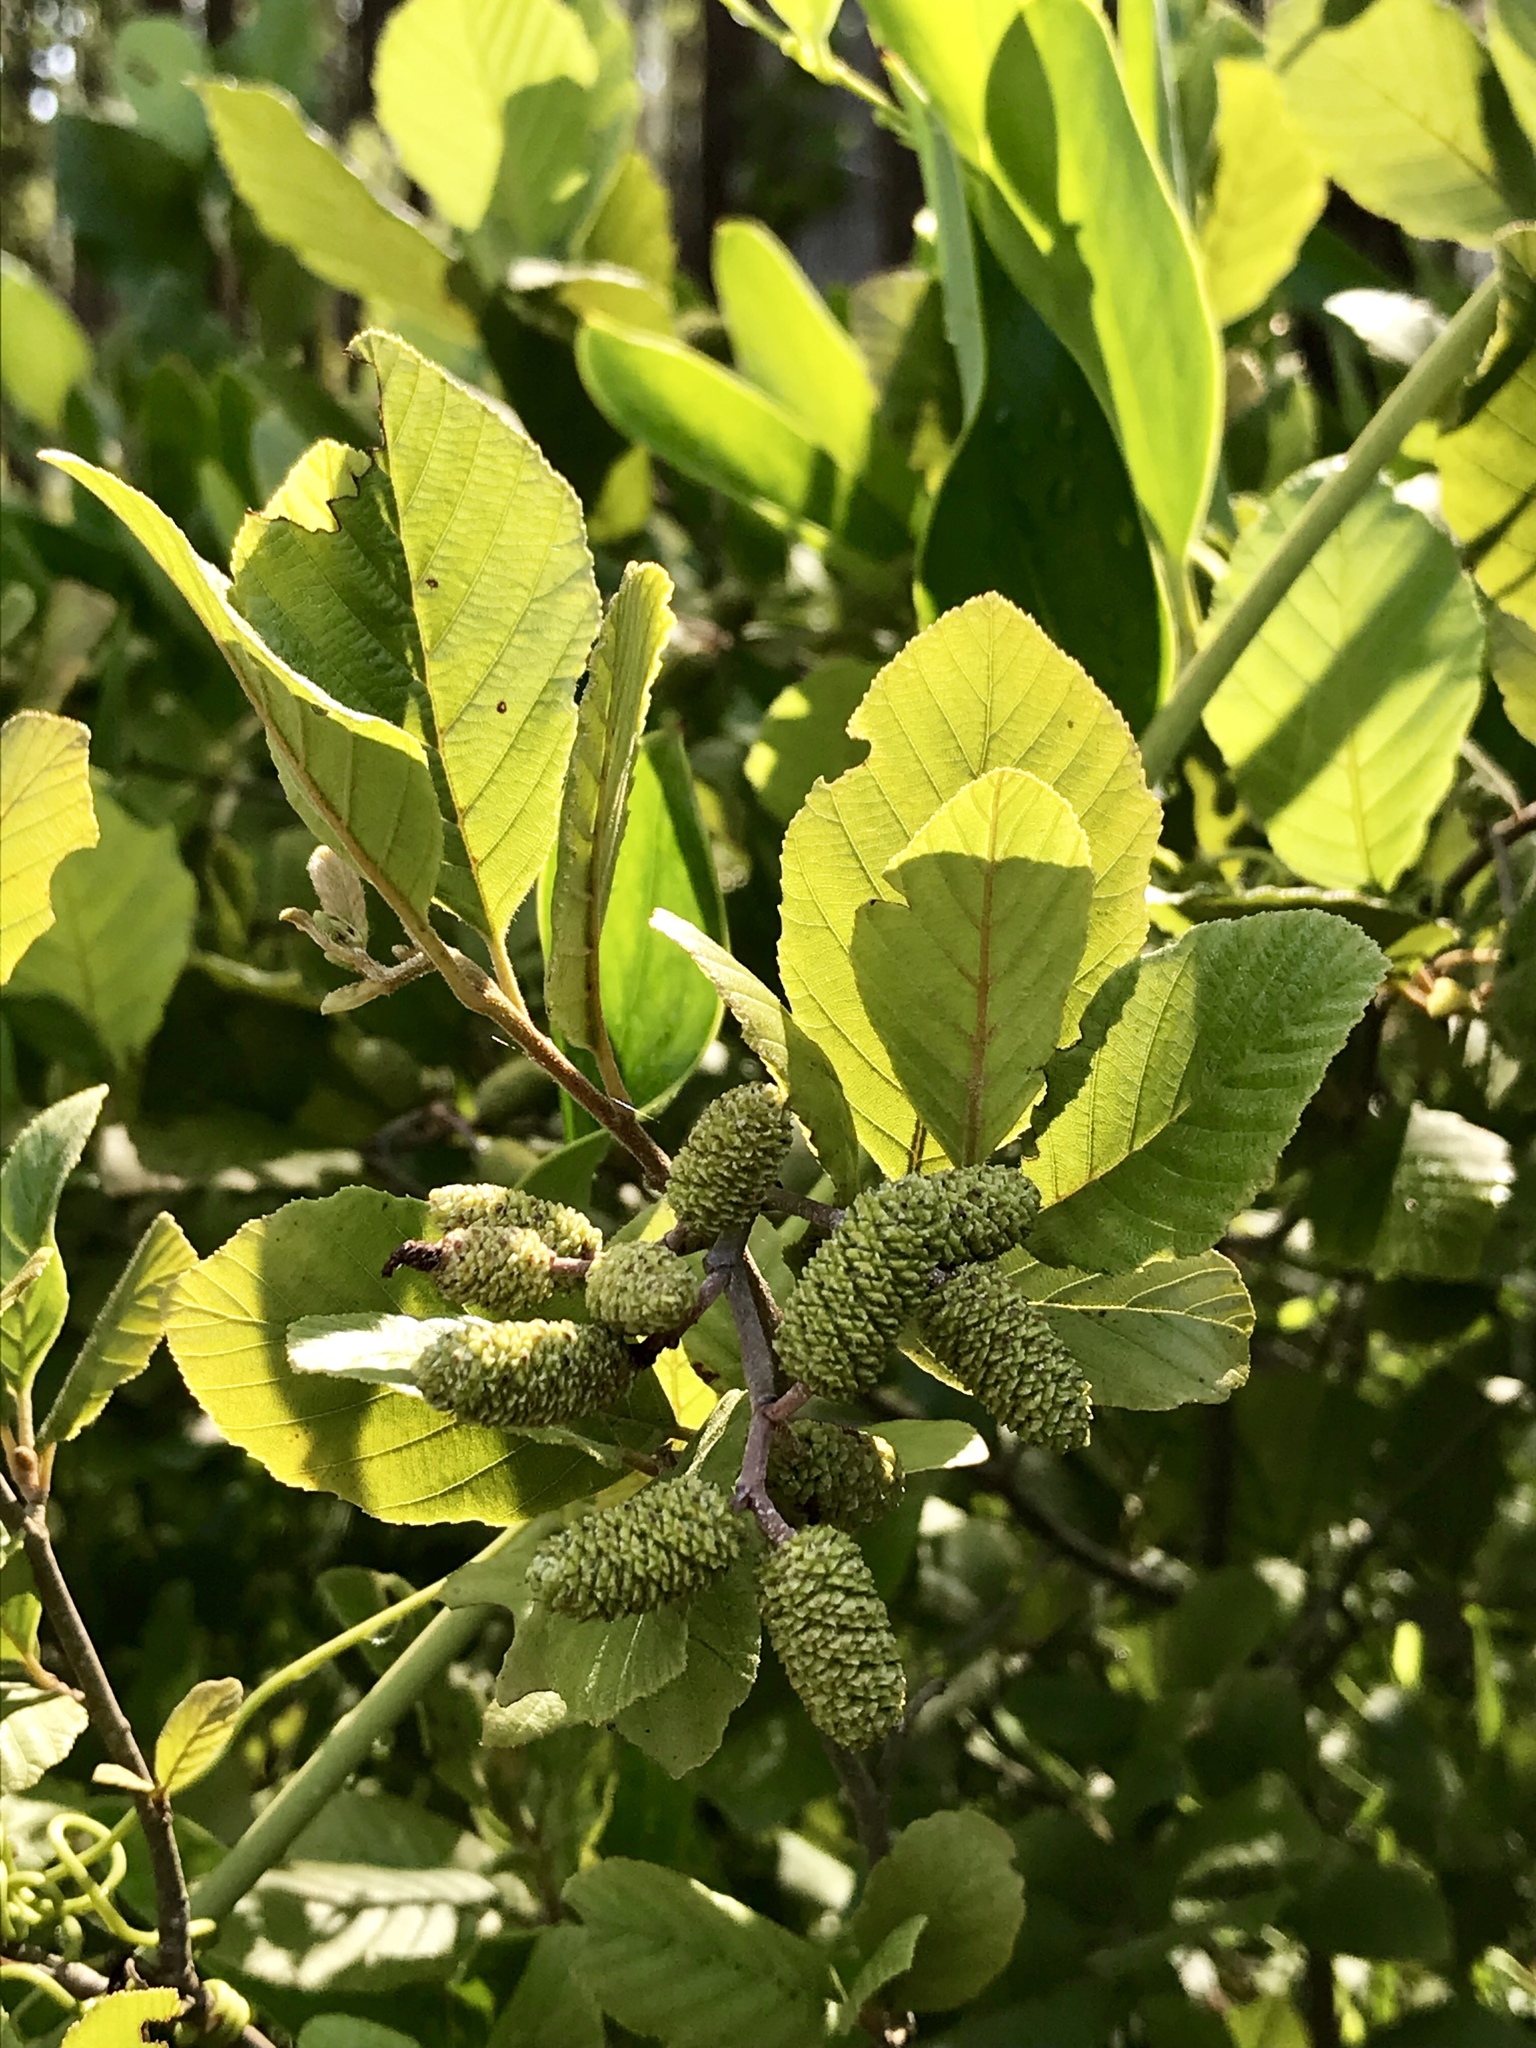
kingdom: Plantae
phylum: Tracheophyta
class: Magnoliopsida
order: Fagales
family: Betulaceae
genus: Alnus
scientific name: Alnus serrulata
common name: Hazel alder
